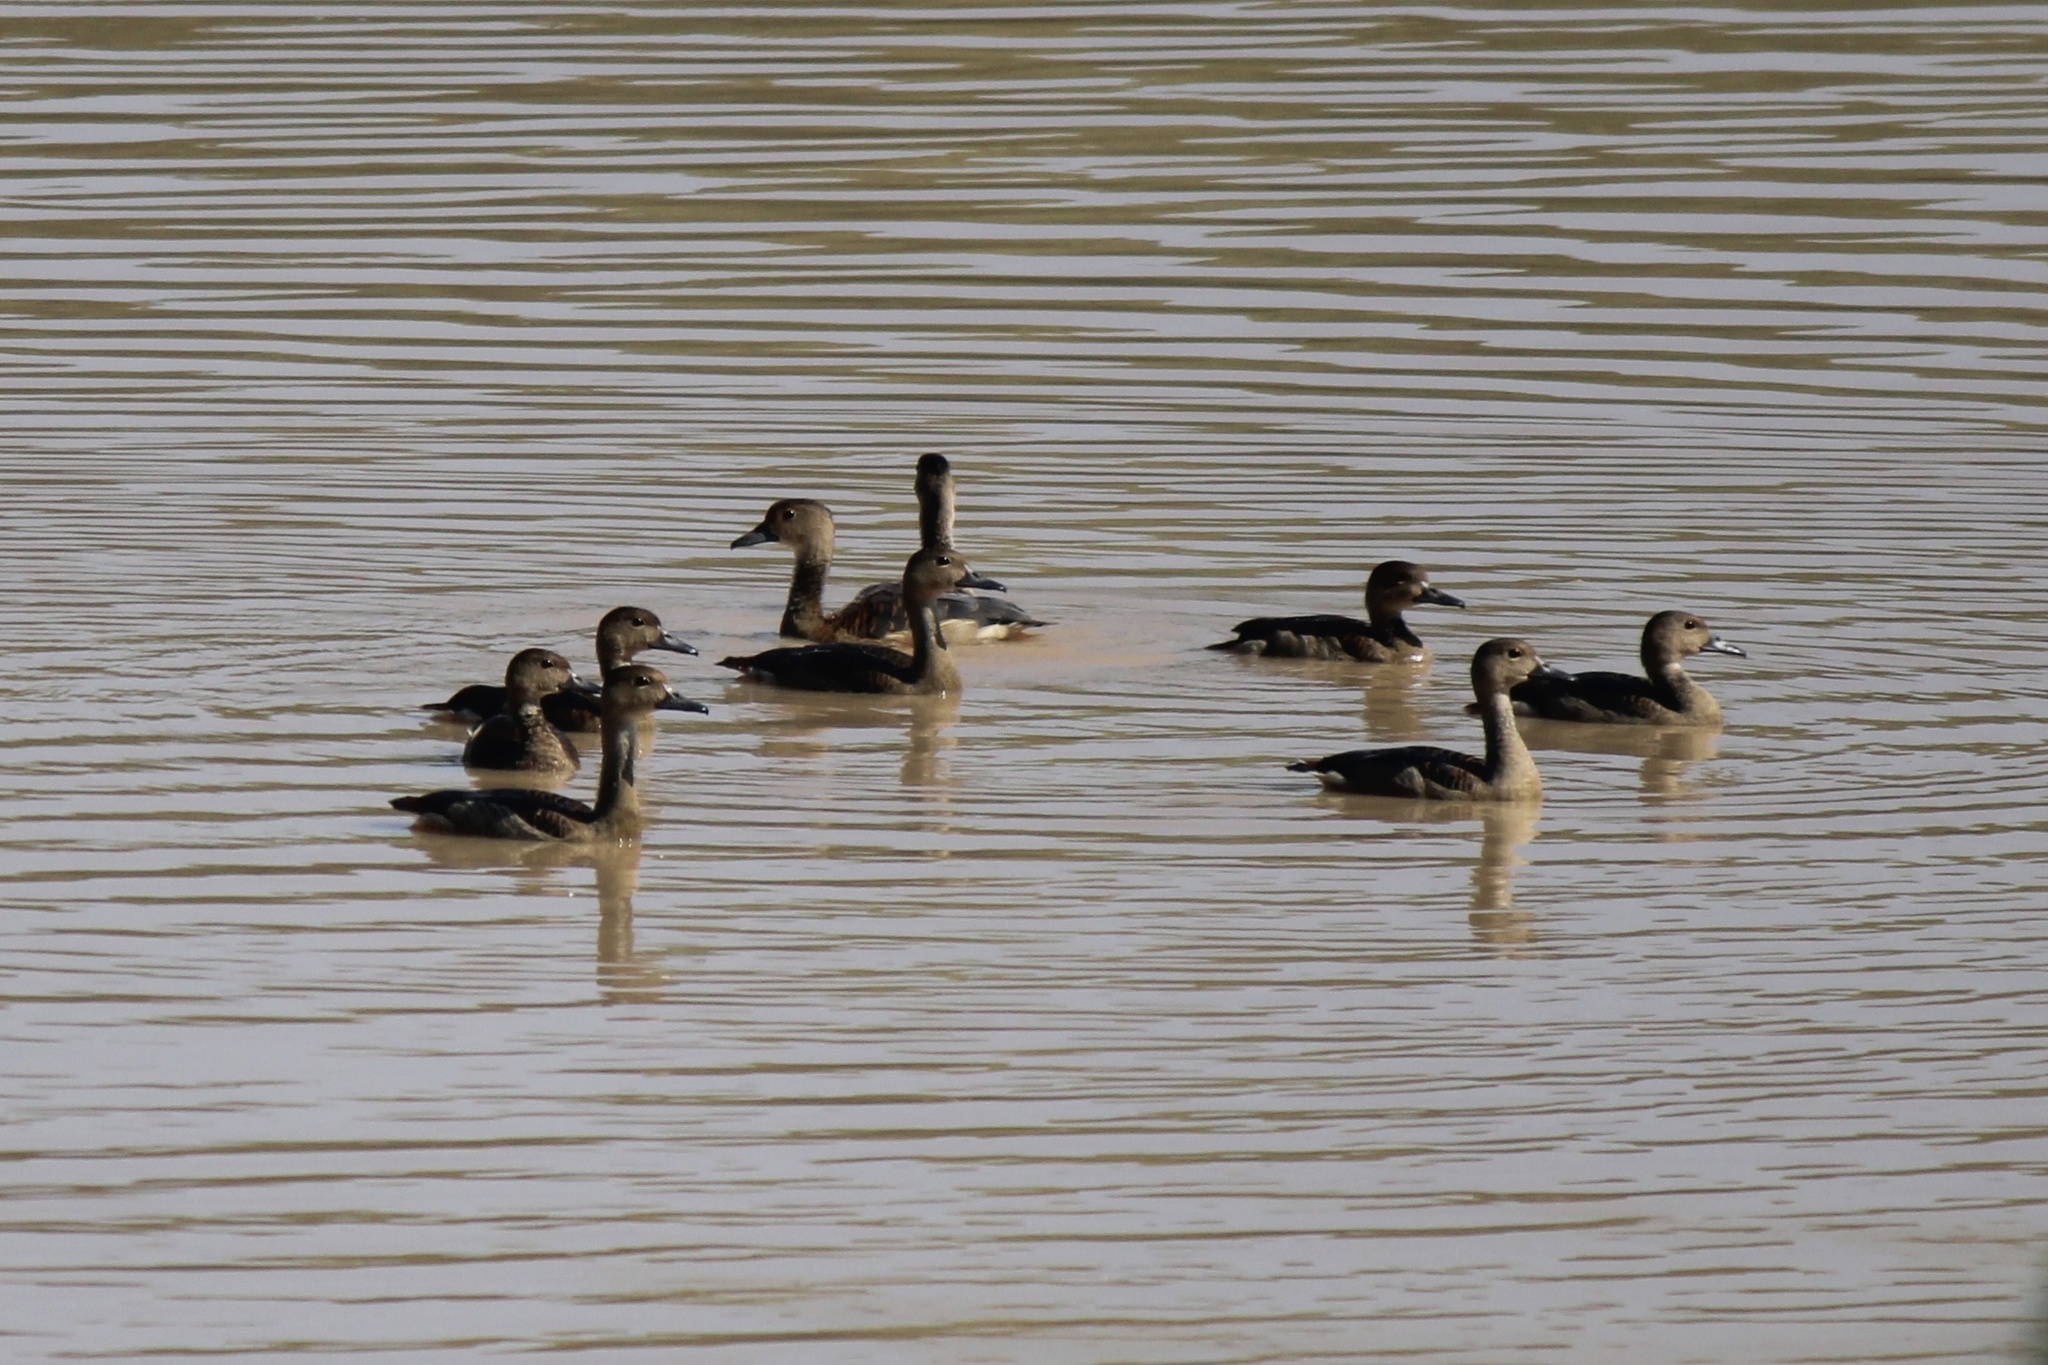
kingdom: Animalia
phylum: Chordata
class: Aves
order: Anseriformes
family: Anatidae
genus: Dendrocygna
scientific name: Dendrocygna javanica
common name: Lesser whistling-duck
